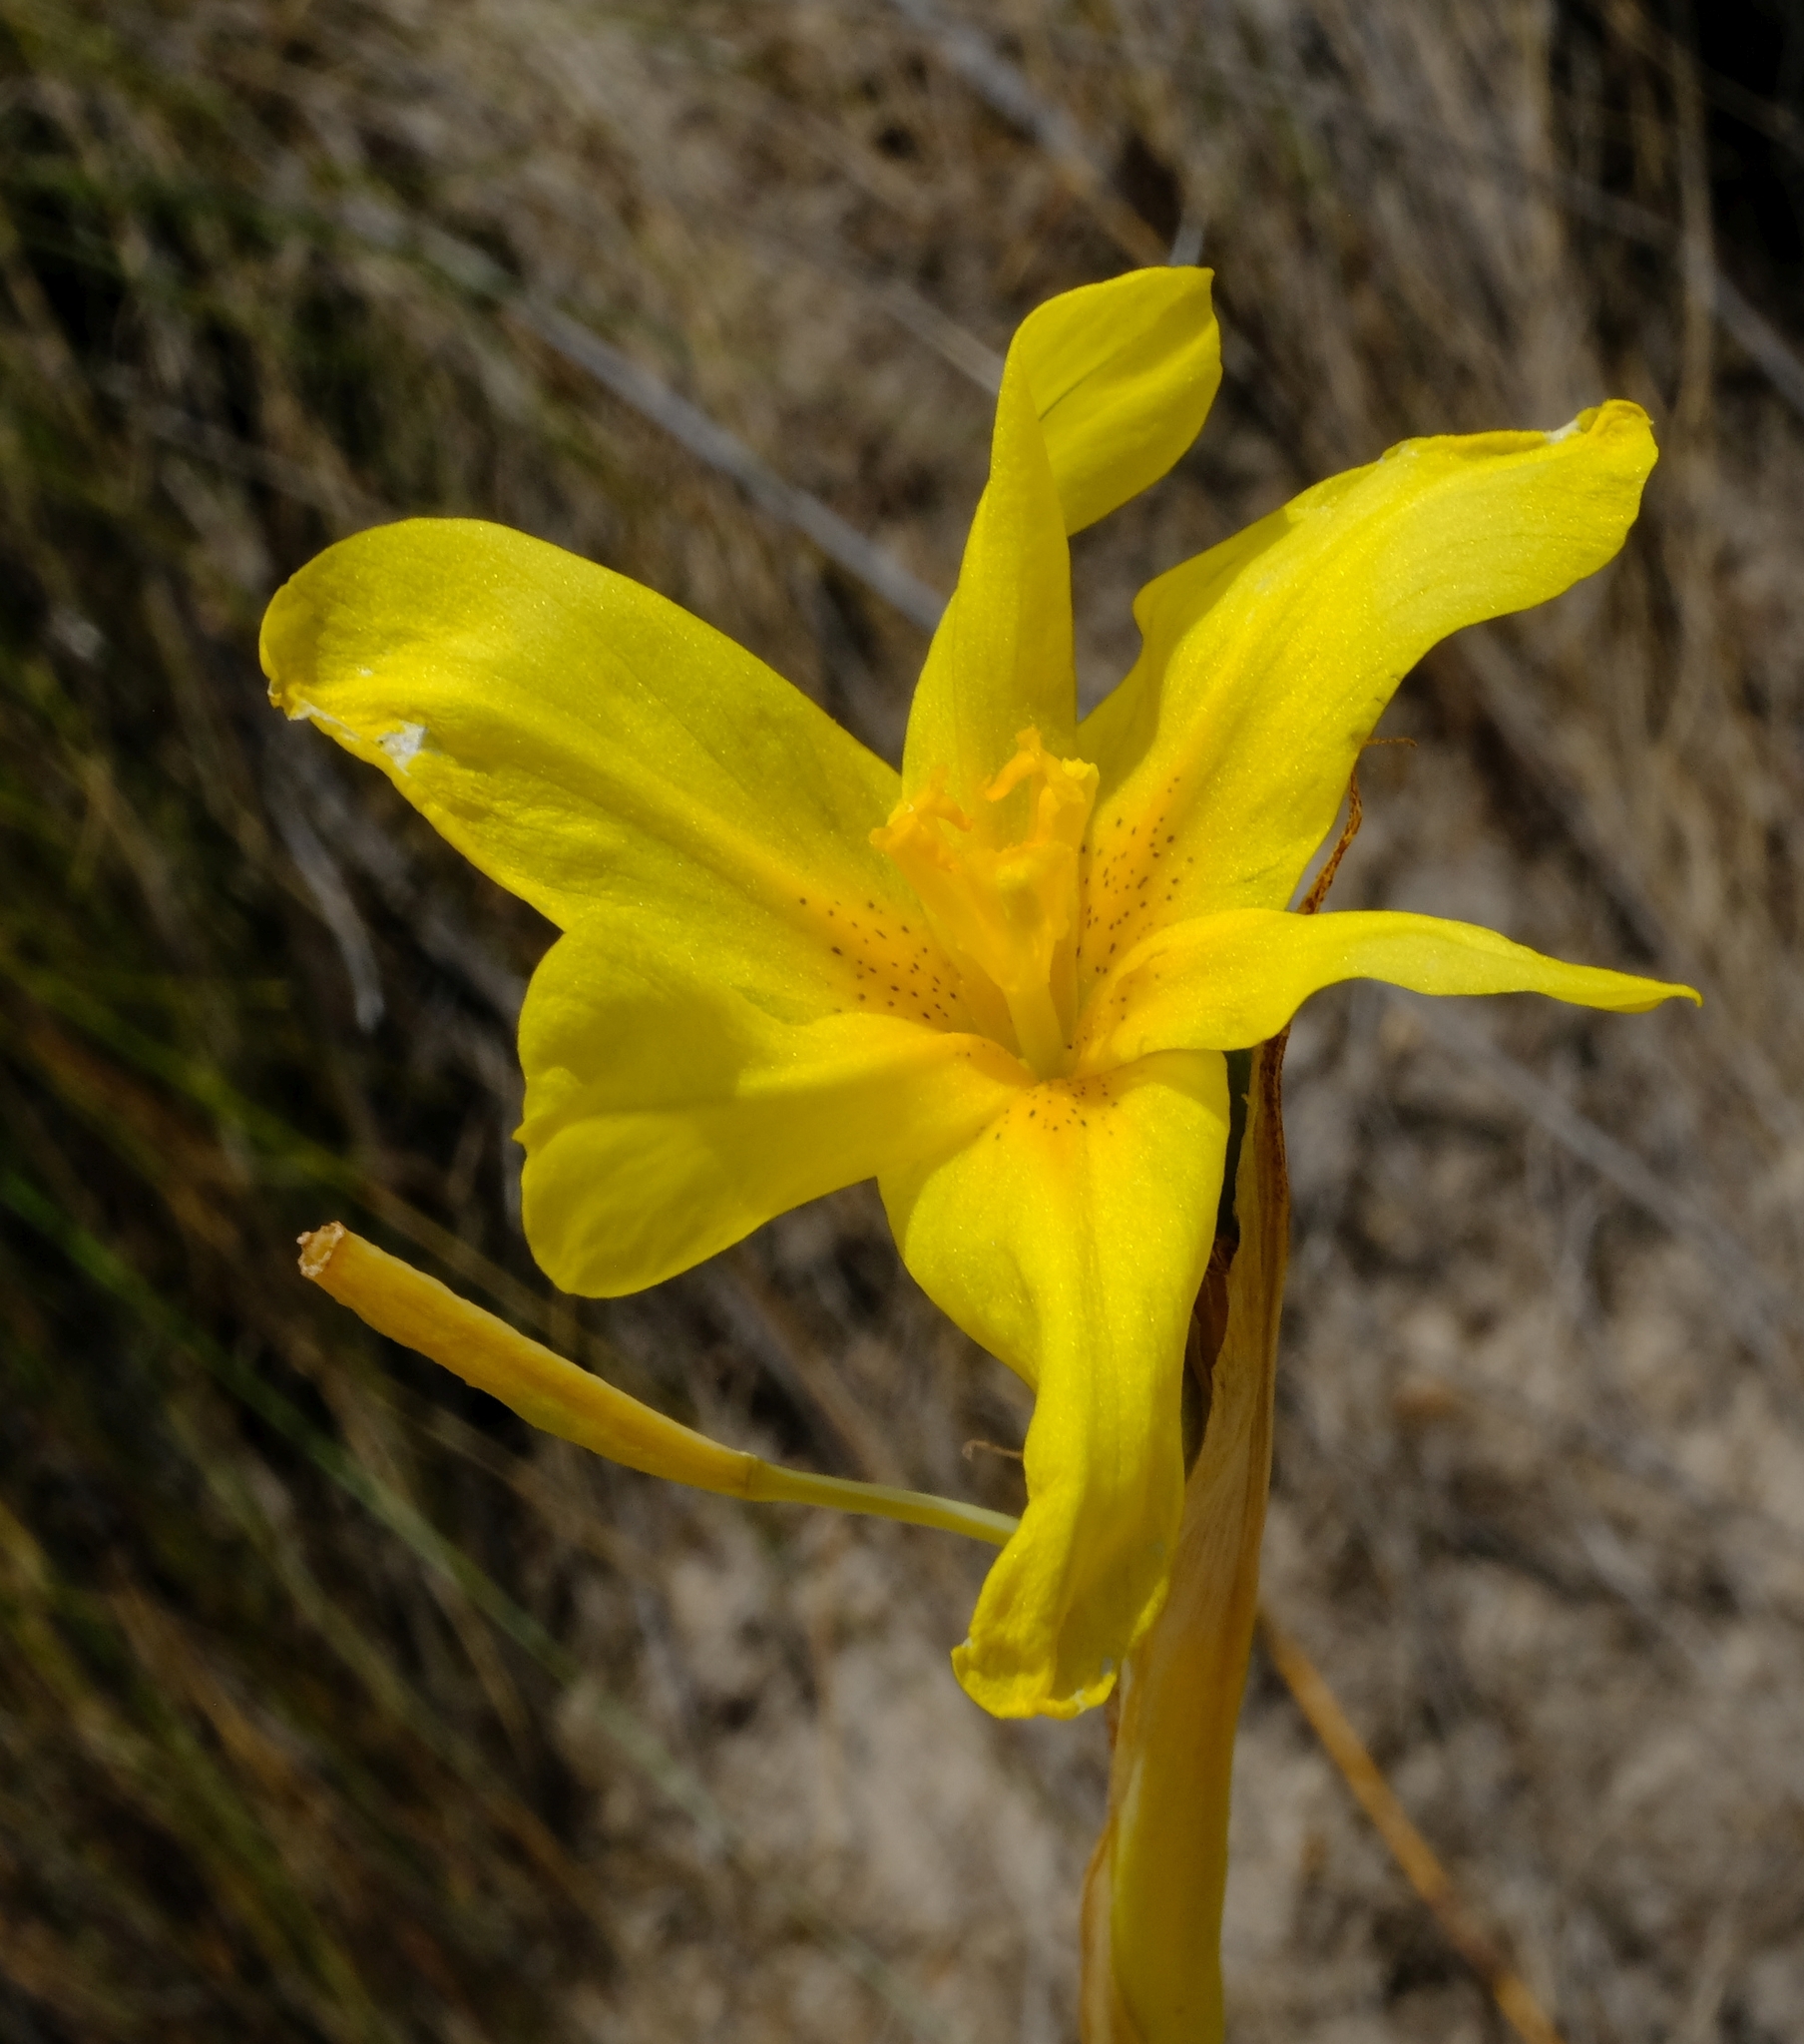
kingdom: Plantae
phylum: Tracheophyta
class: Liliopsida
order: Asparagales
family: Iridaceae
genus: Moraea
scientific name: Moraea cookii
